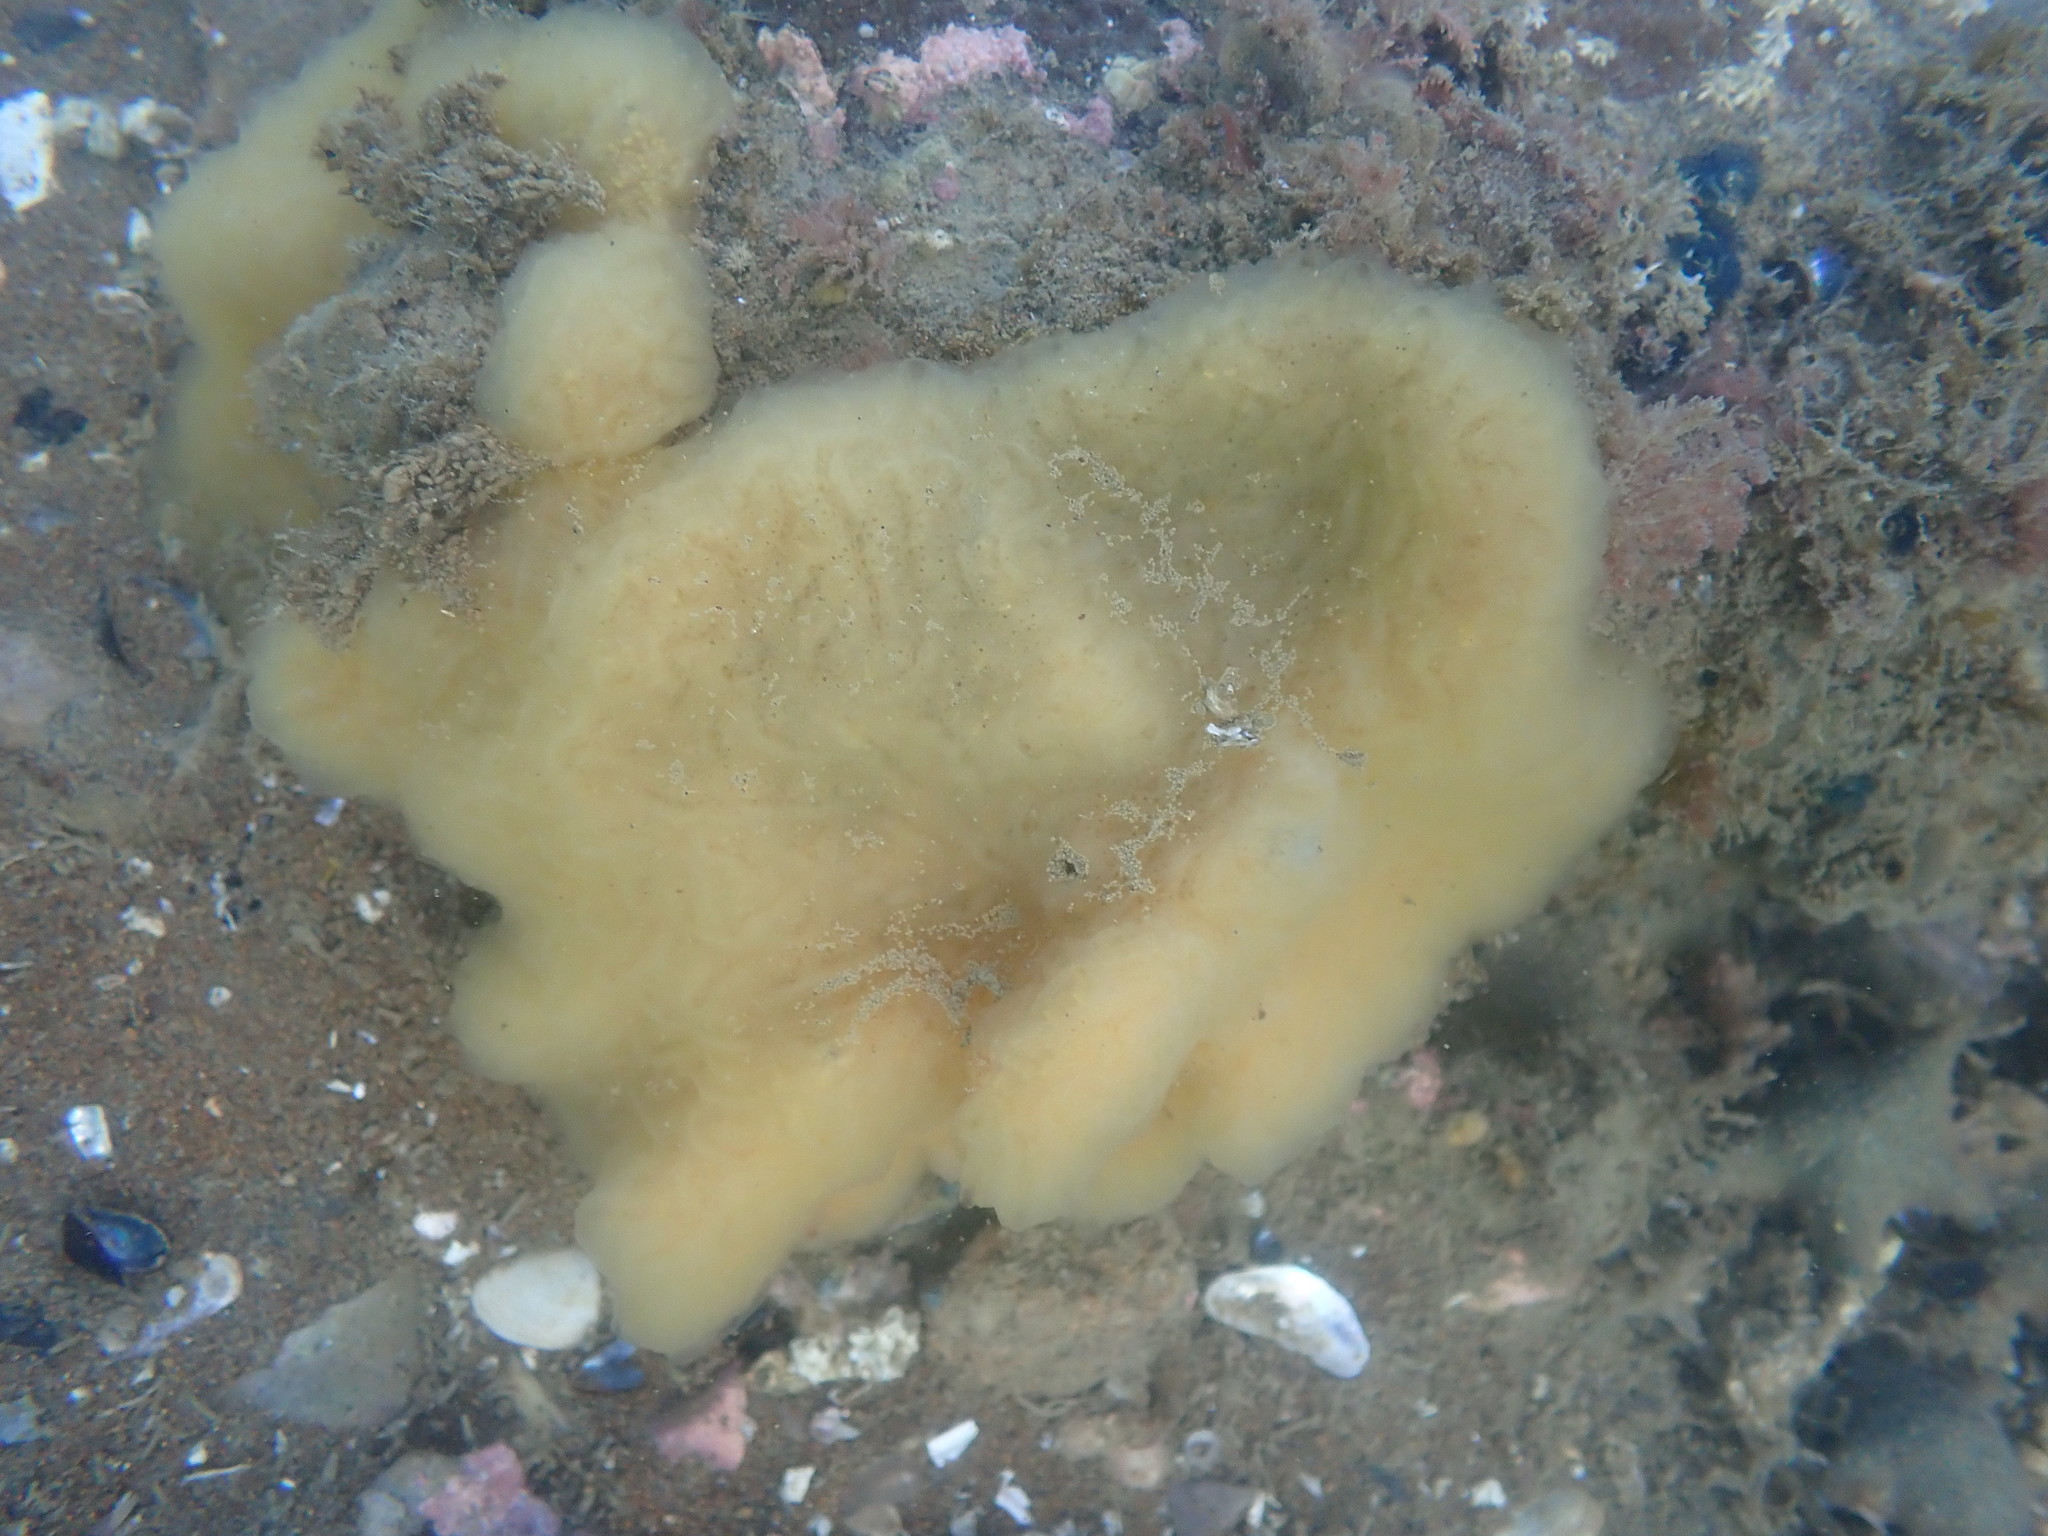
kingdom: Animalia
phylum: Chordata
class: Ascidiacea
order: Aplousobranchia
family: Polyclinidae
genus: Aplidium
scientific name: Aplidium phortax
